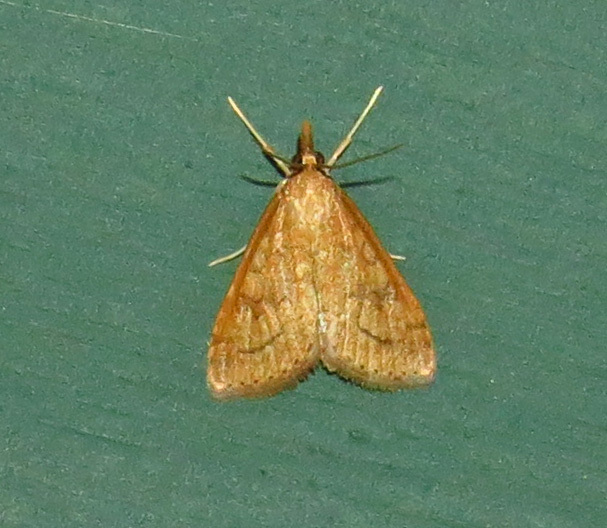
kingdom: Animalia
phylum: Arthropoda
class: Insecta
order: Lepidoptera
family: Crambidae
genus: Udea
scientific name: Udea rubigalis
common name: Celery leaftier moth
